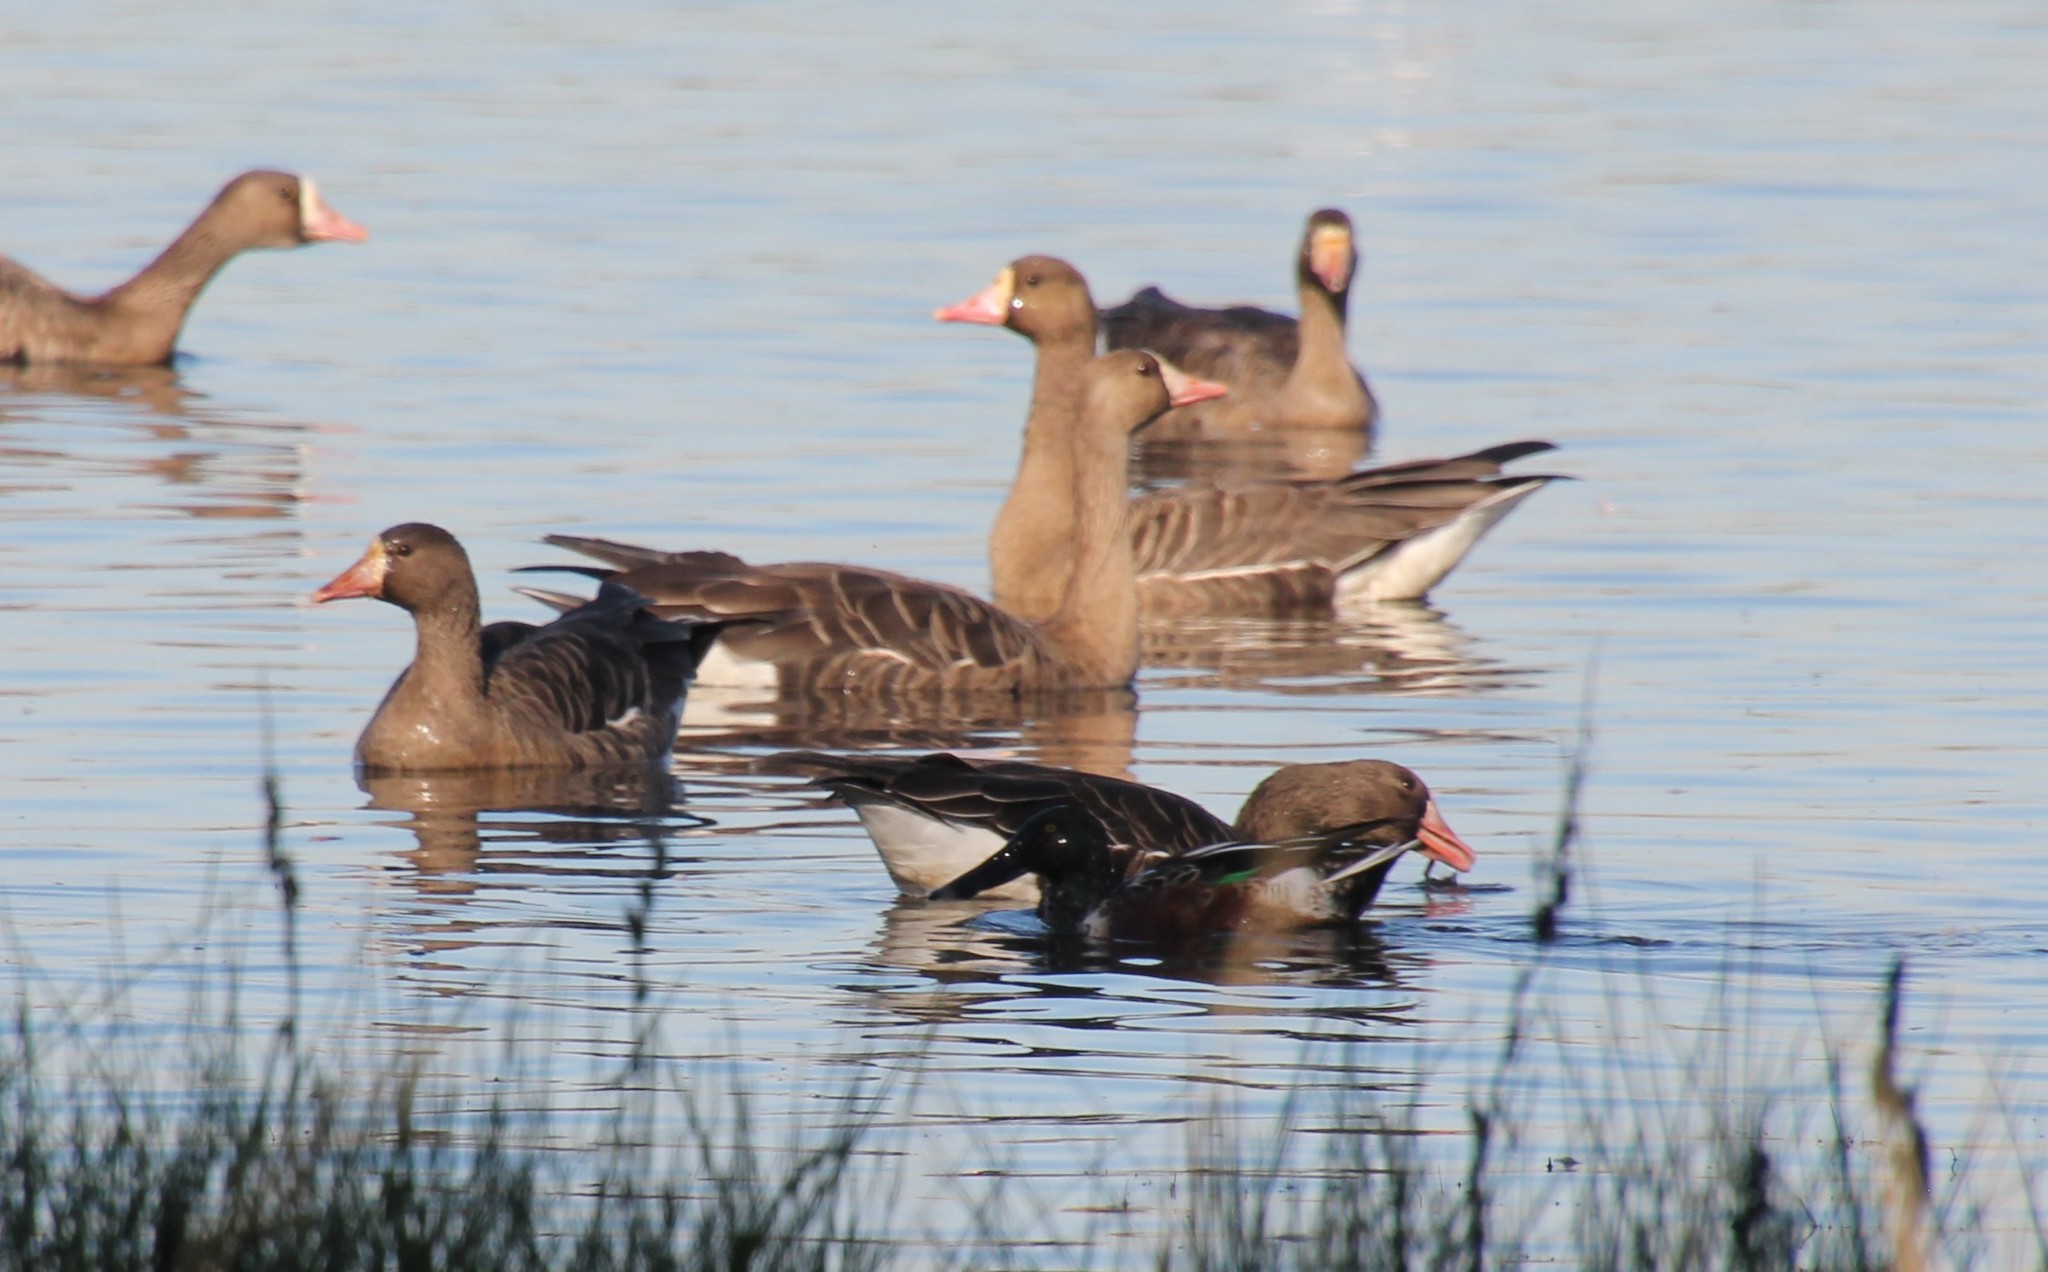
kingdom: Animalia
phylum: Chordata
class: Aves
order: Anseriformes
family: Anatidae
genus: Anser
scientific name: Anser albifrons
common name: Greater white-fronted goose
